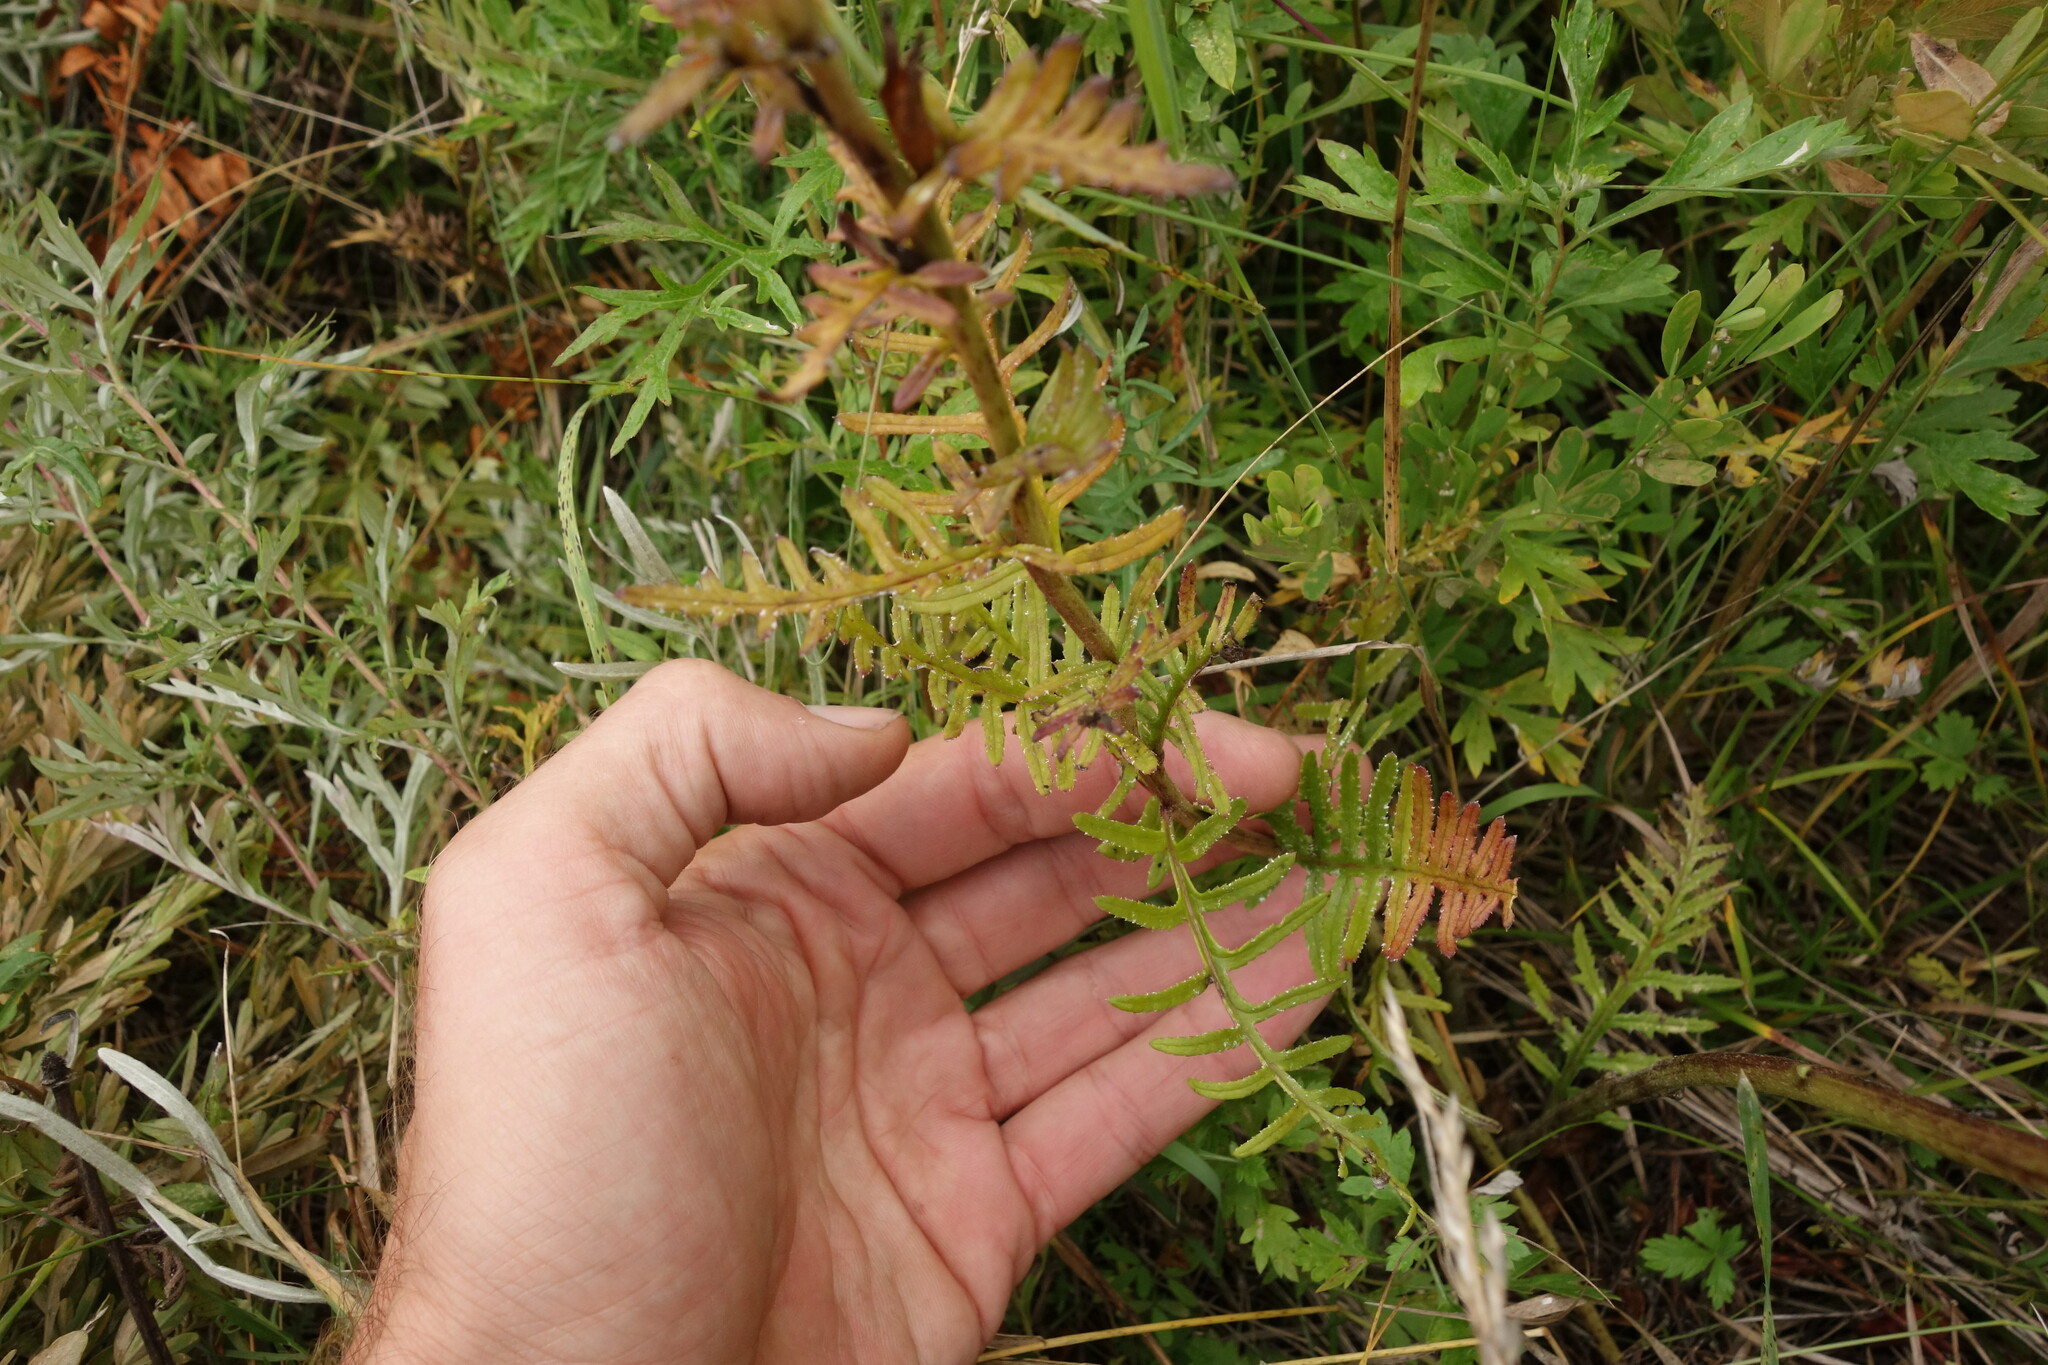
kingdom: Plantae
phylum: Tracheophyta
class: Magnoliopsida
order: Lamiales
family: Orobanchaceae
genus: Pedicularis
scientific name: Pedicularis striata
